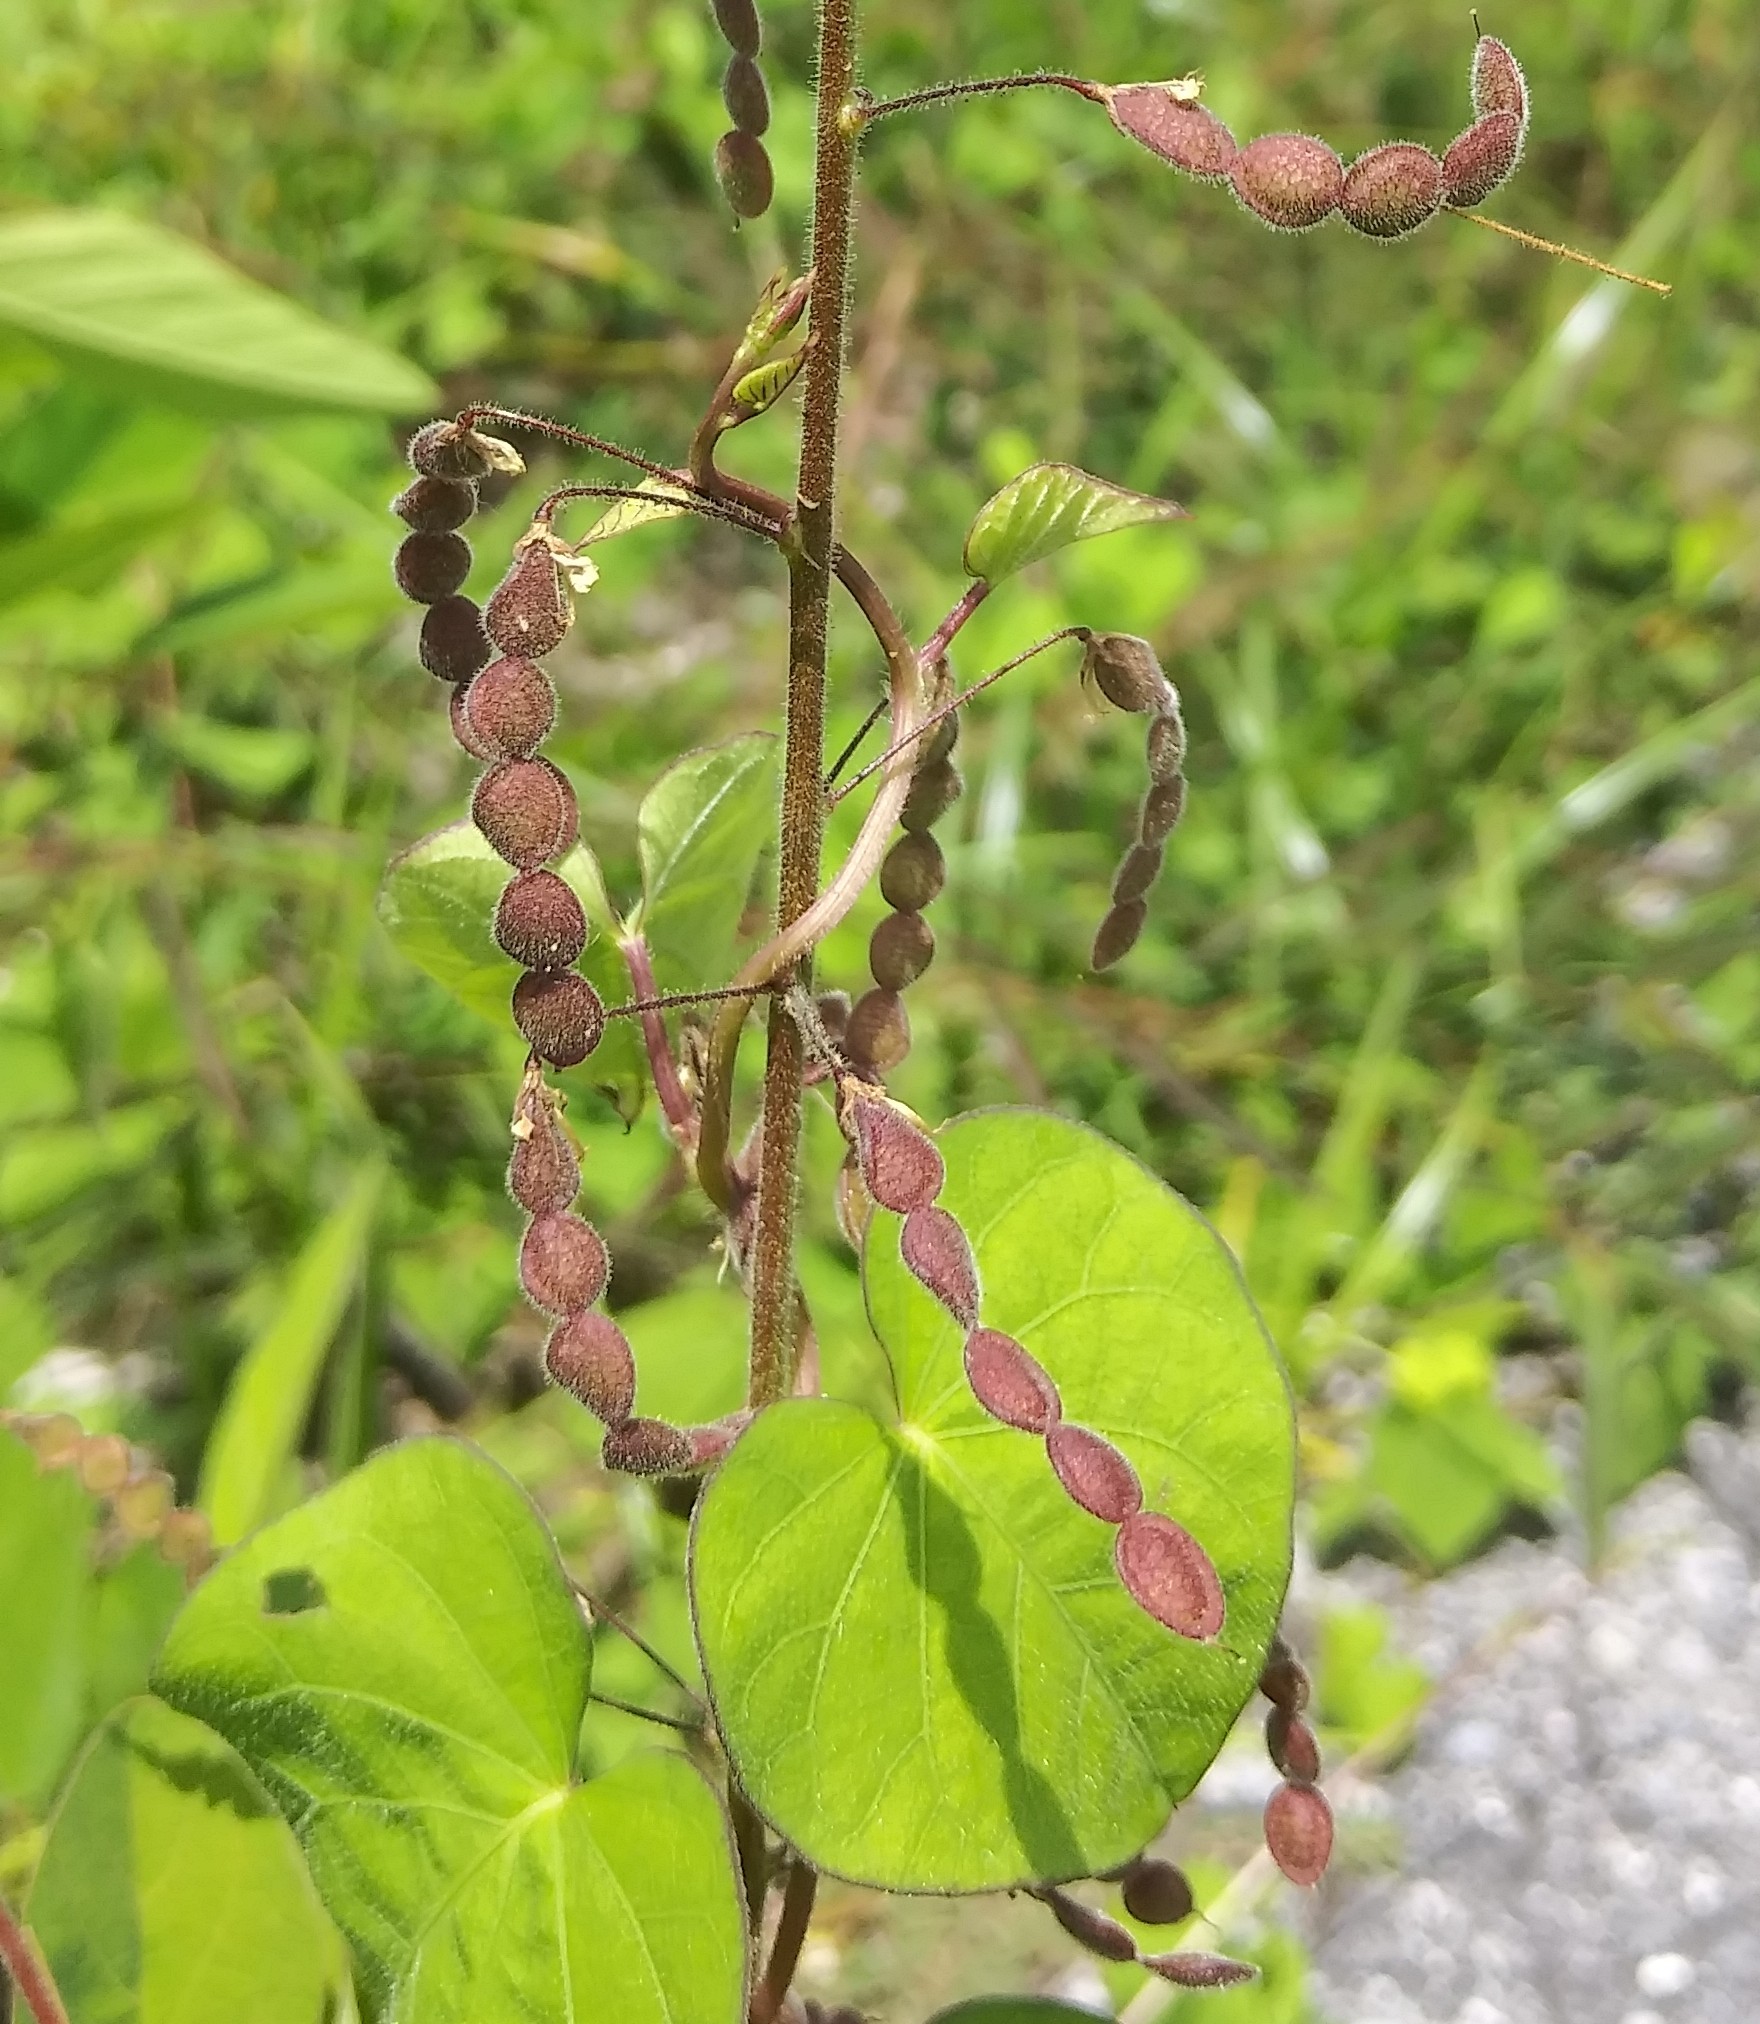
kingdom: Plantae
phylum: Tracheophyta
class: Magnoliopsida
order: Fabales
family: Fabaceae
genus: Desmodium
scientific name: Desmodium tortuosum
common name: Dixie ticktrefoil
